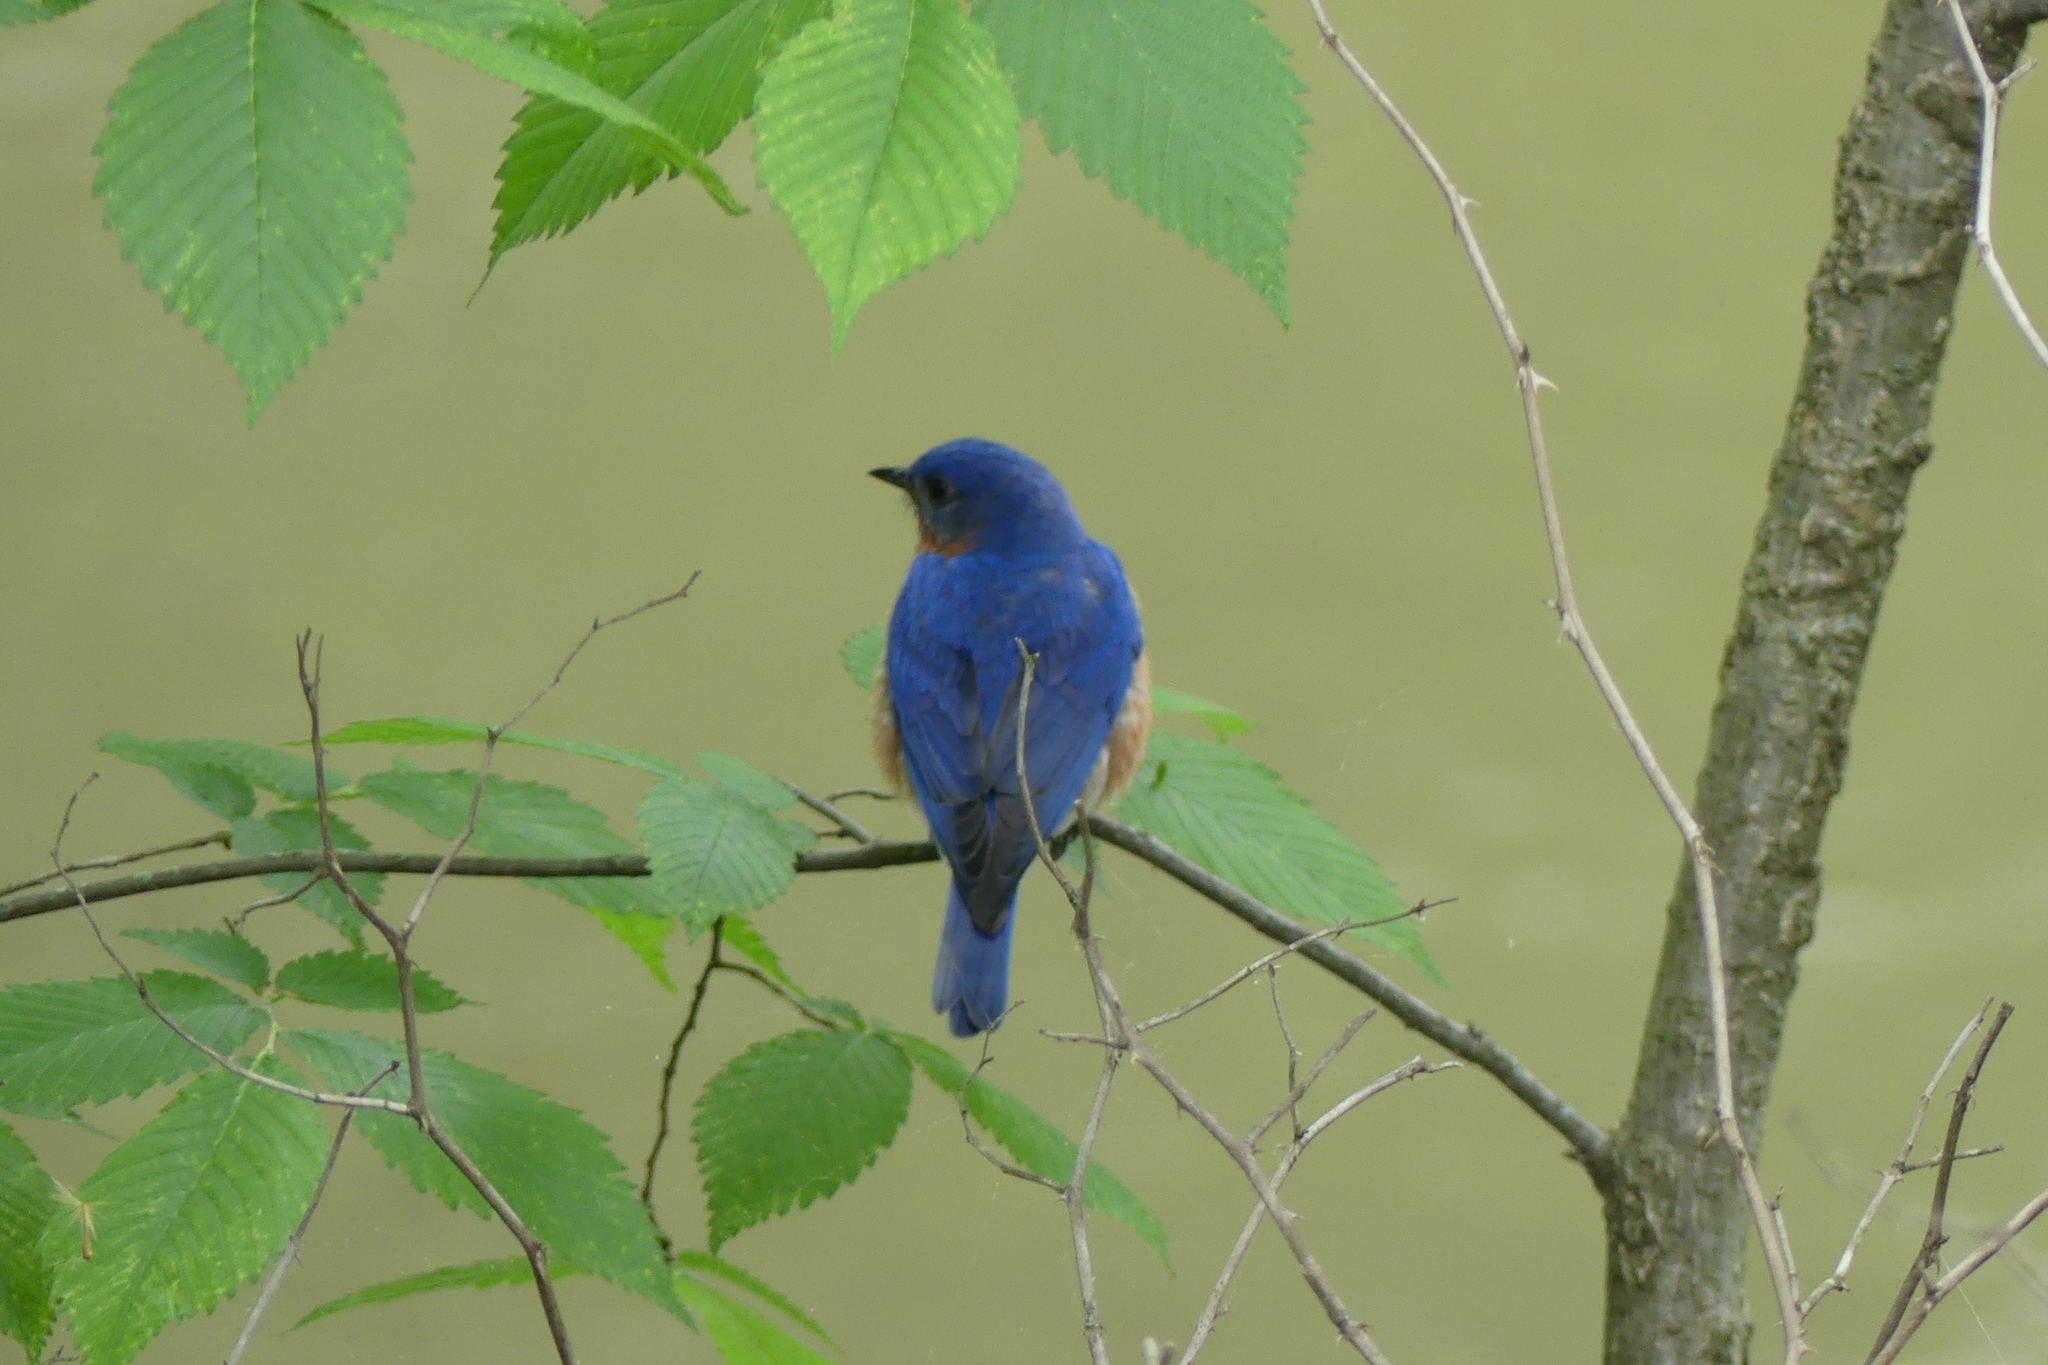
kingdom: Animalia
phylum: Chordata
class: Aves
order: Passeriformes
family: Turdidae
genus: Sialia
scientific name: Sialia sialis
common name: Eastern bluebird
